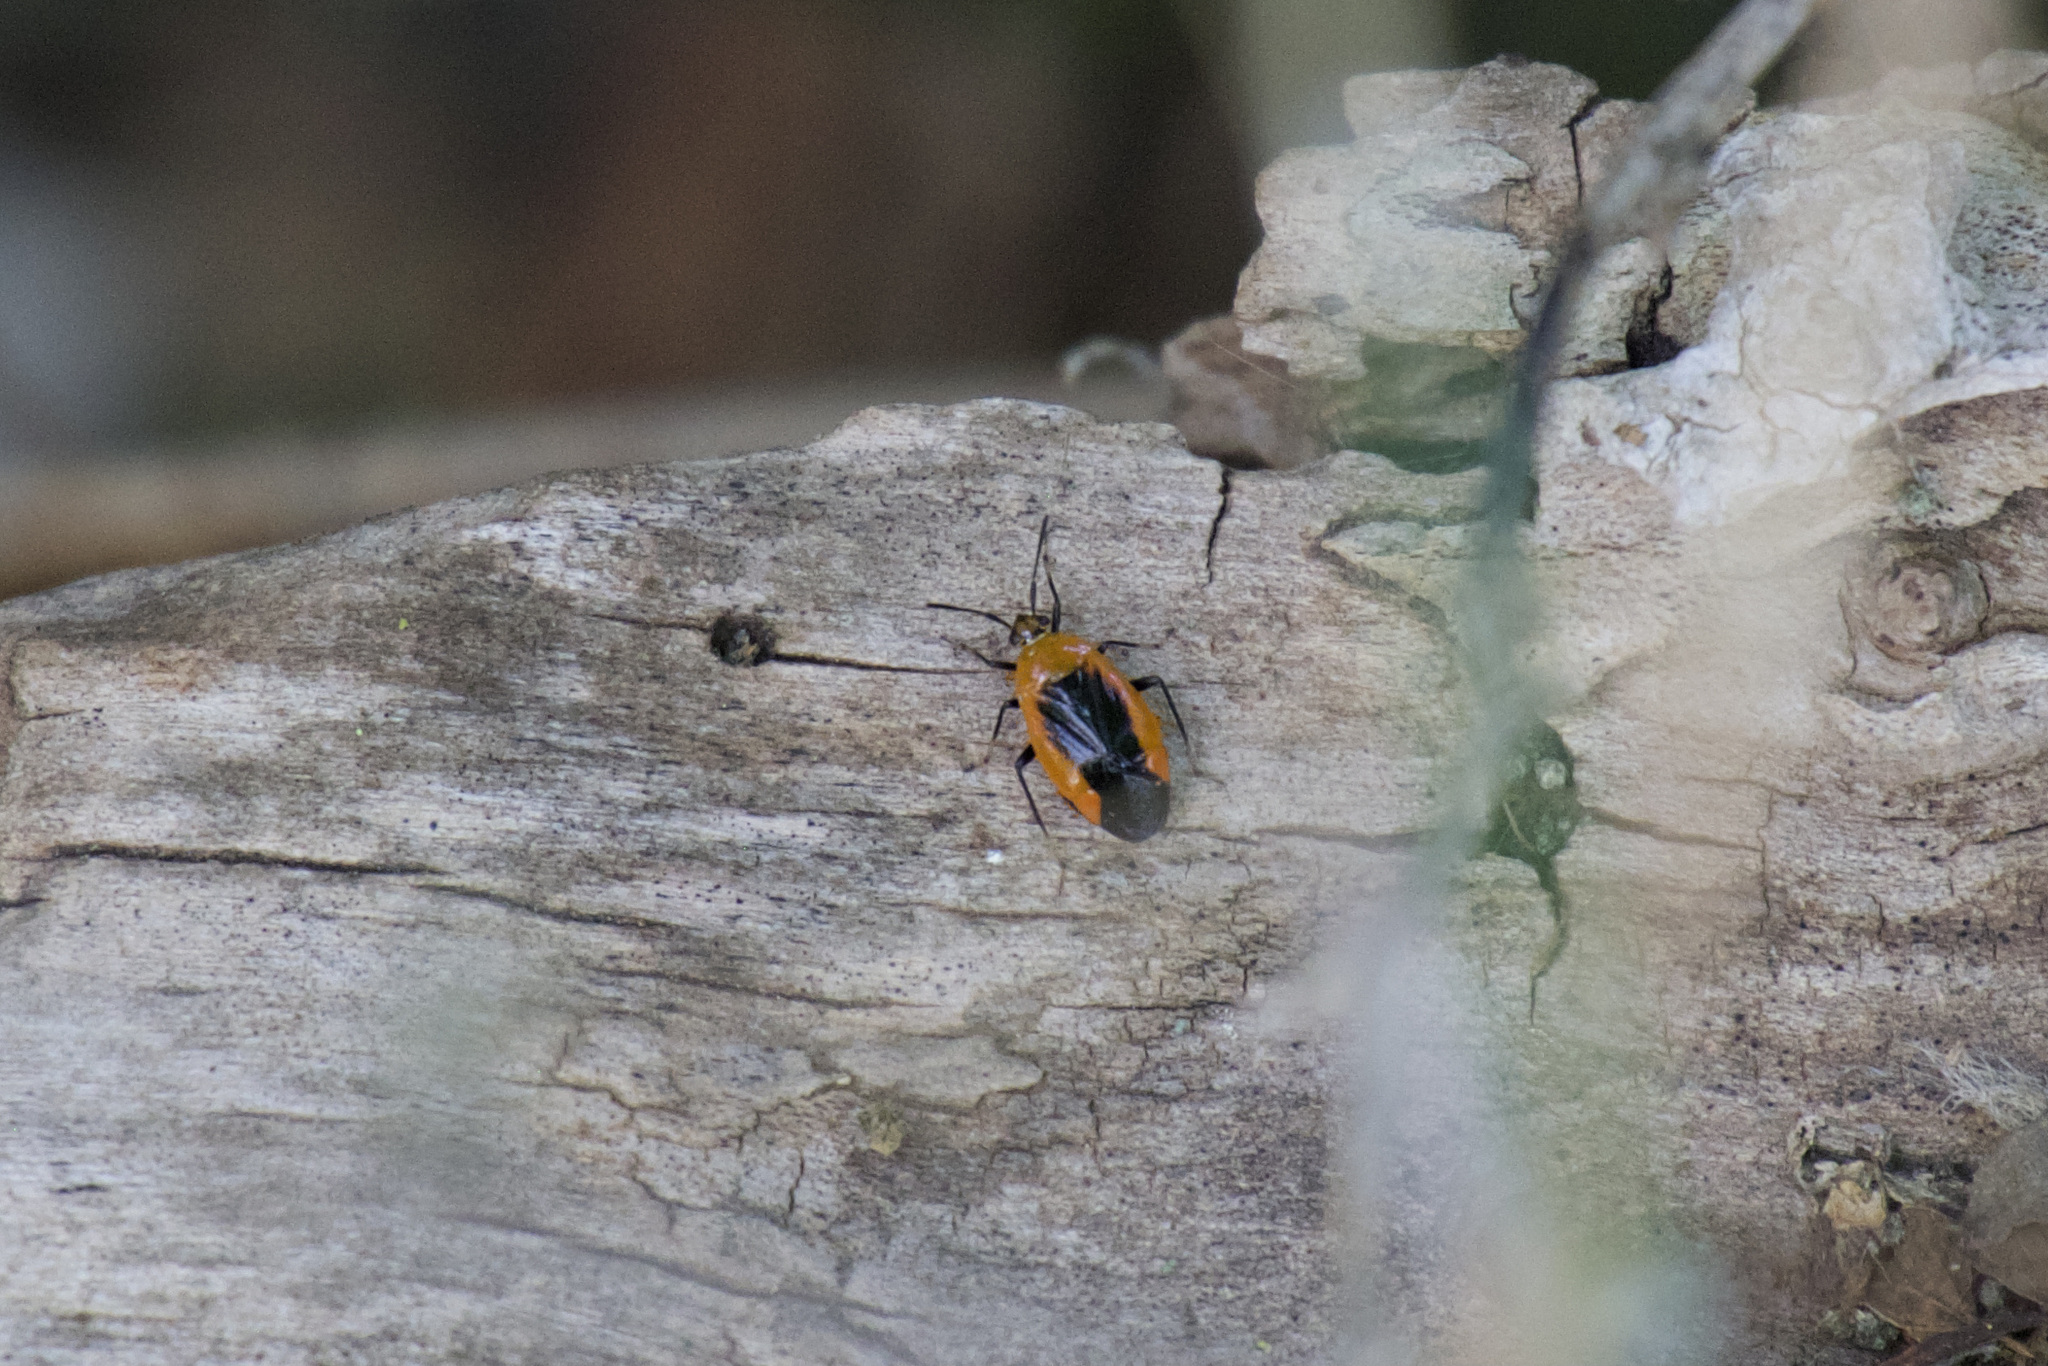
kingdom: Animalia
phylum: Arthropoda
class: Insecta
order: Hemiptera
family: Miridae
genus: Metriorrhynchomiris
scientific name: Metriorrhynchomiris dislocatus
